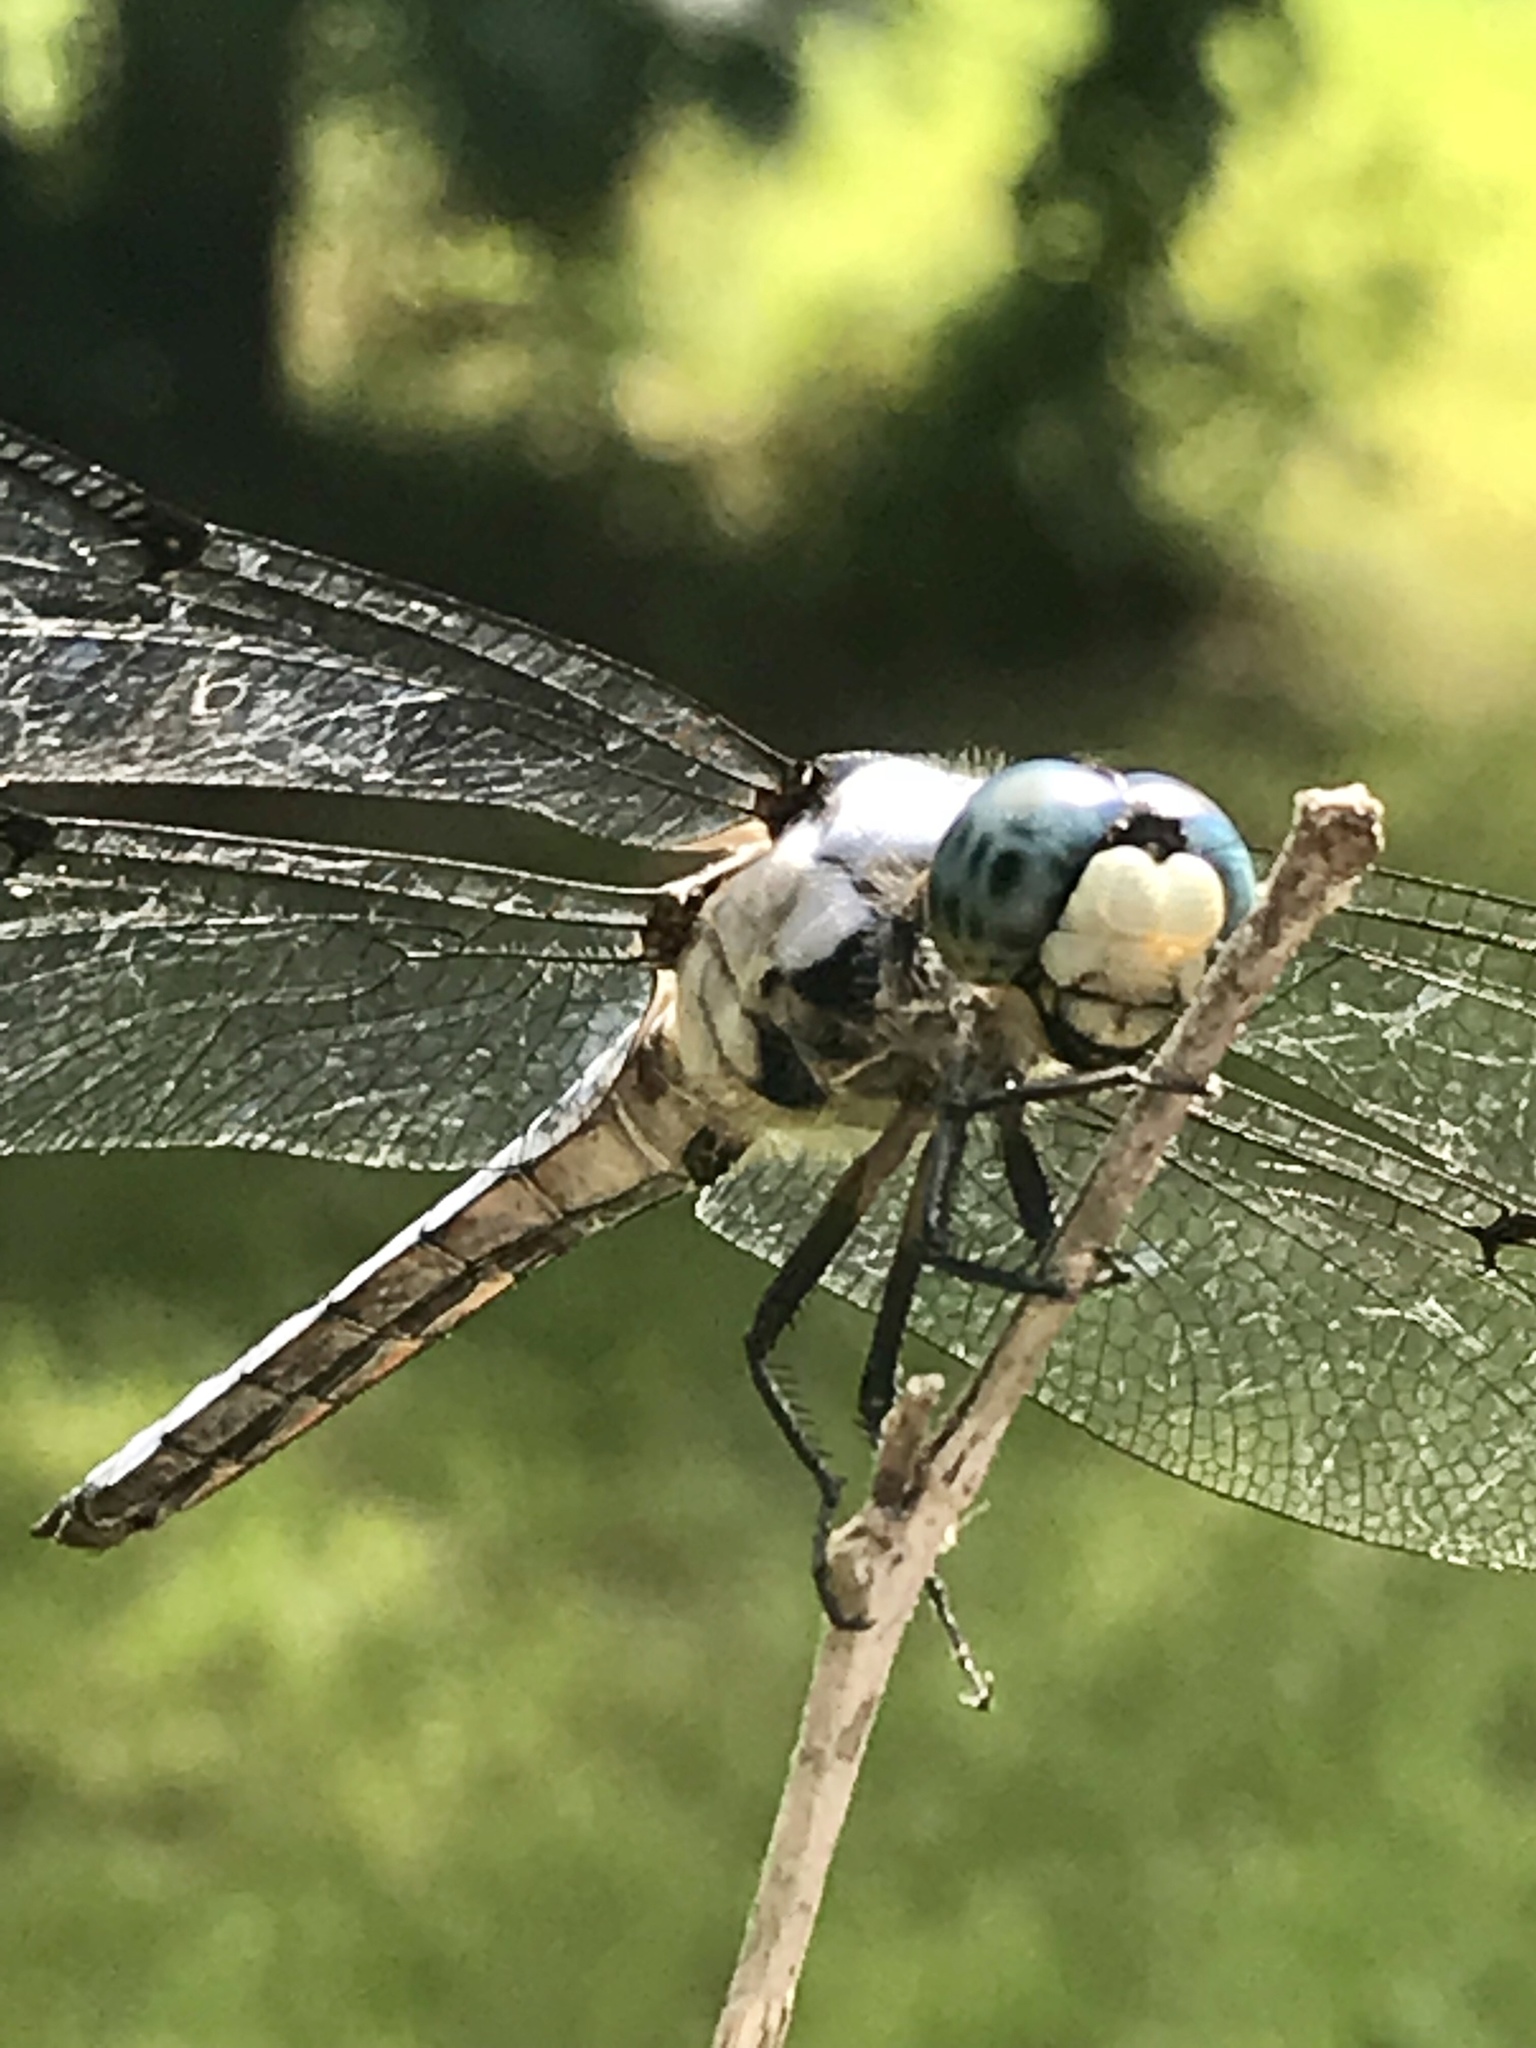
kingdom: Animalia
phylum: Arthropoda
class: Insecta
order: Odonata
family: Libellulidae
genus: Libellula
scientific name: Libellula vibrans
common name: Great blue skimmer
